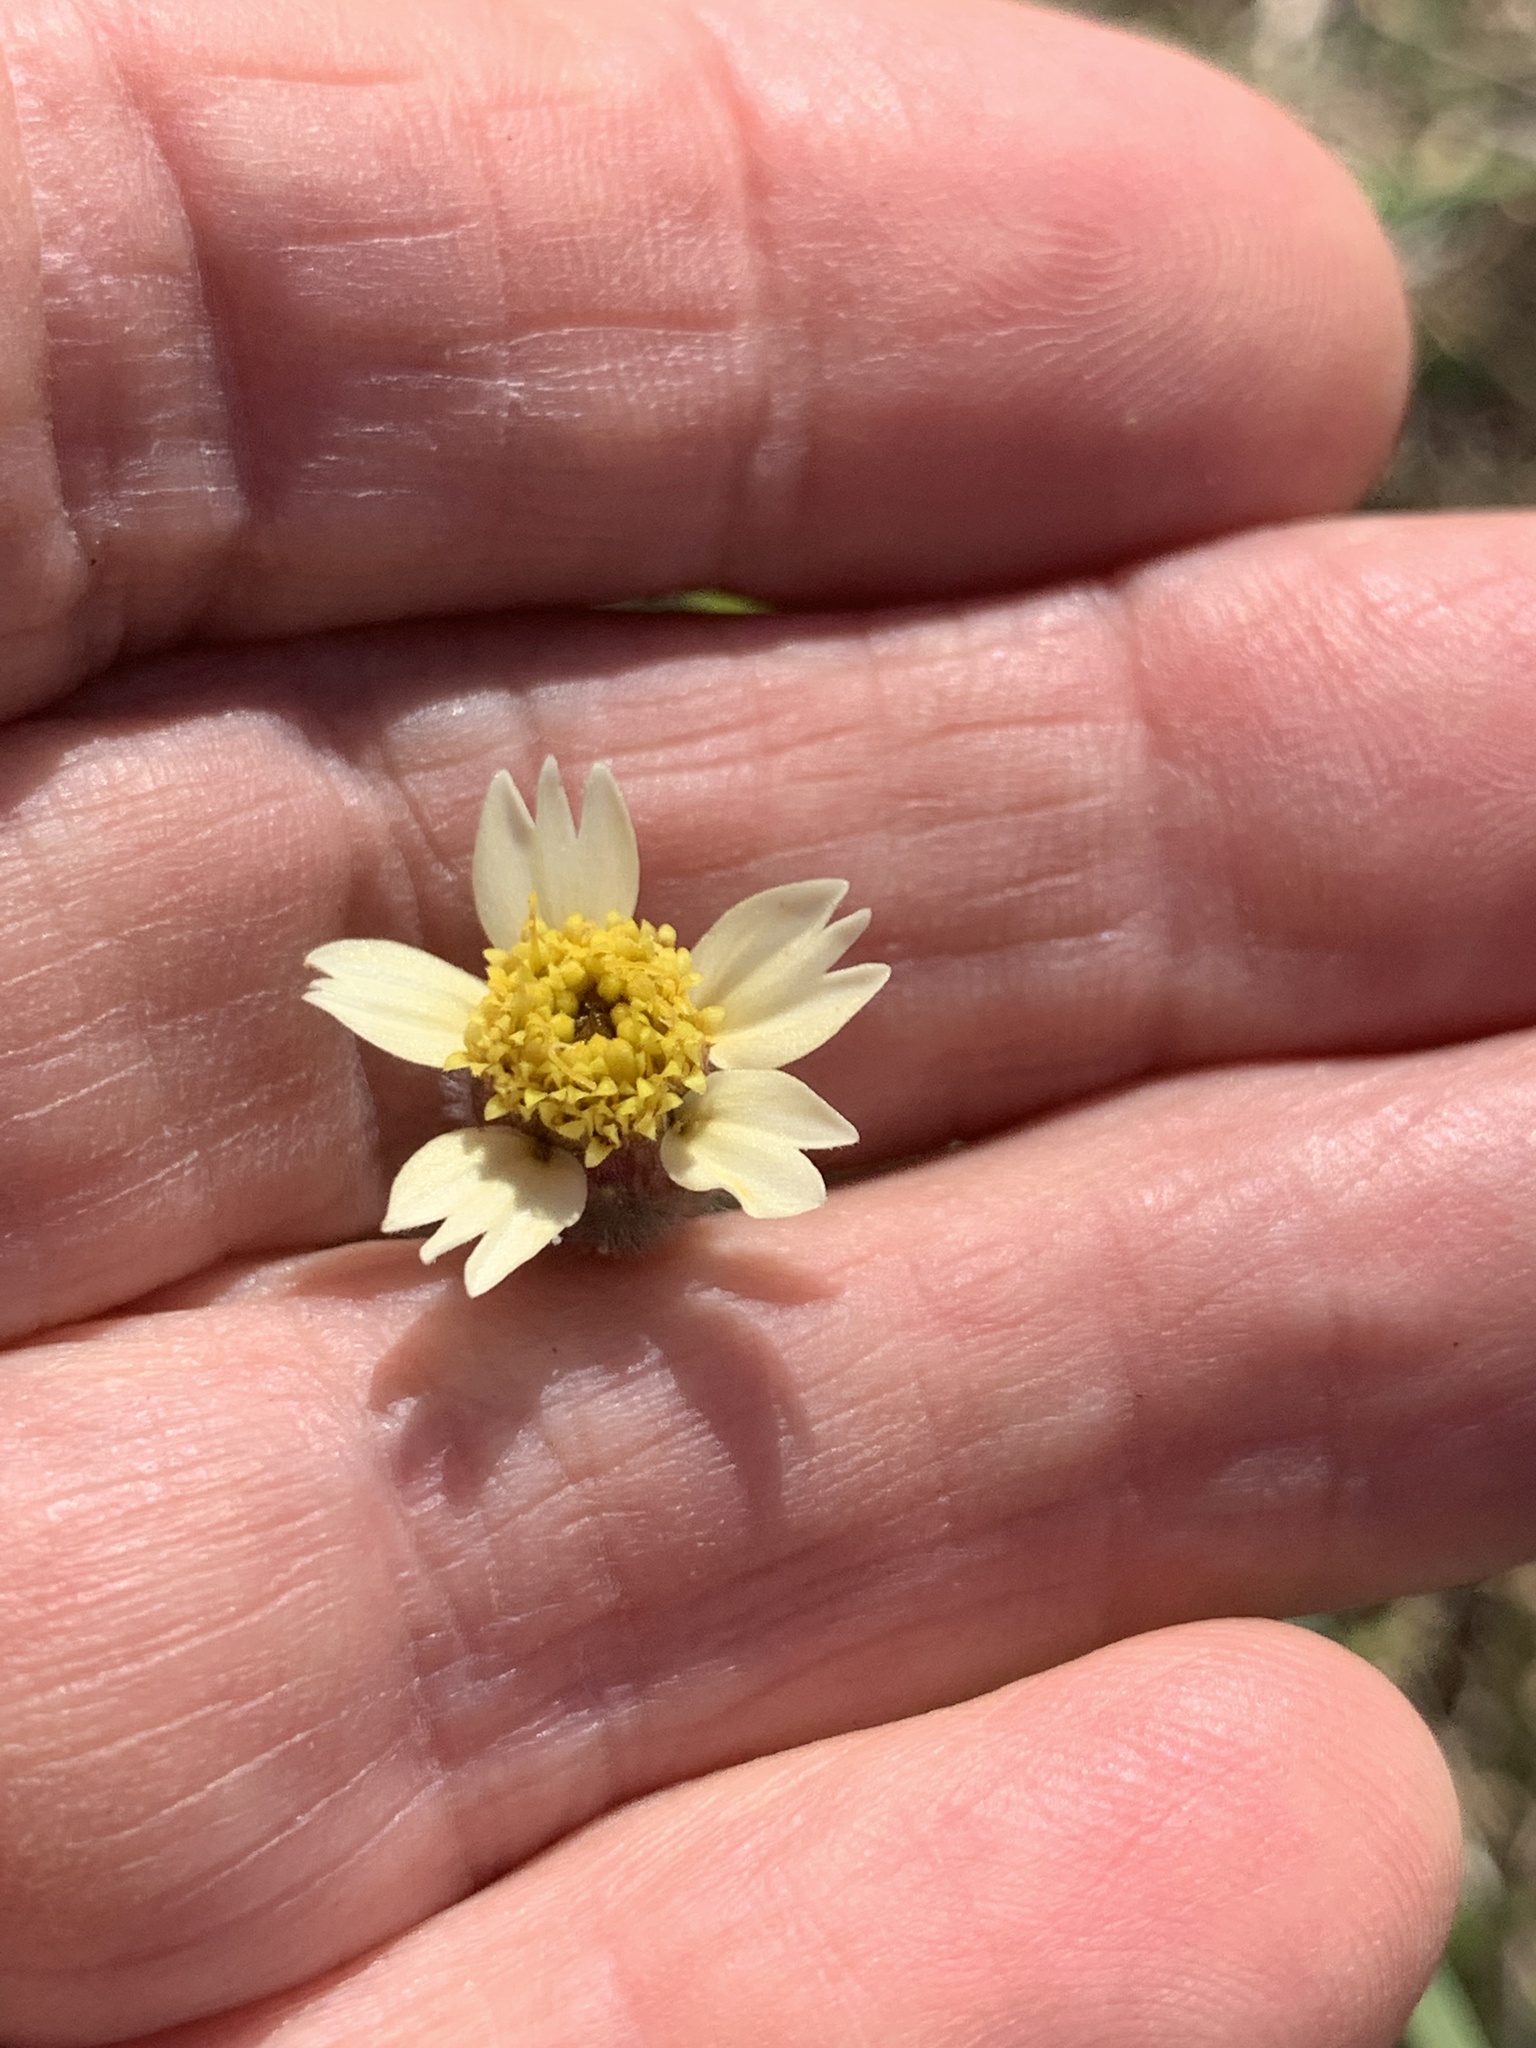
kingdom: Plantae
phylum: Tracheophyta
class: Magnoliopsida
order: Asterales
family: Asteraceae
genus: Tridax
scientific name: Tridax procumbens
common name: Coatbuttons
